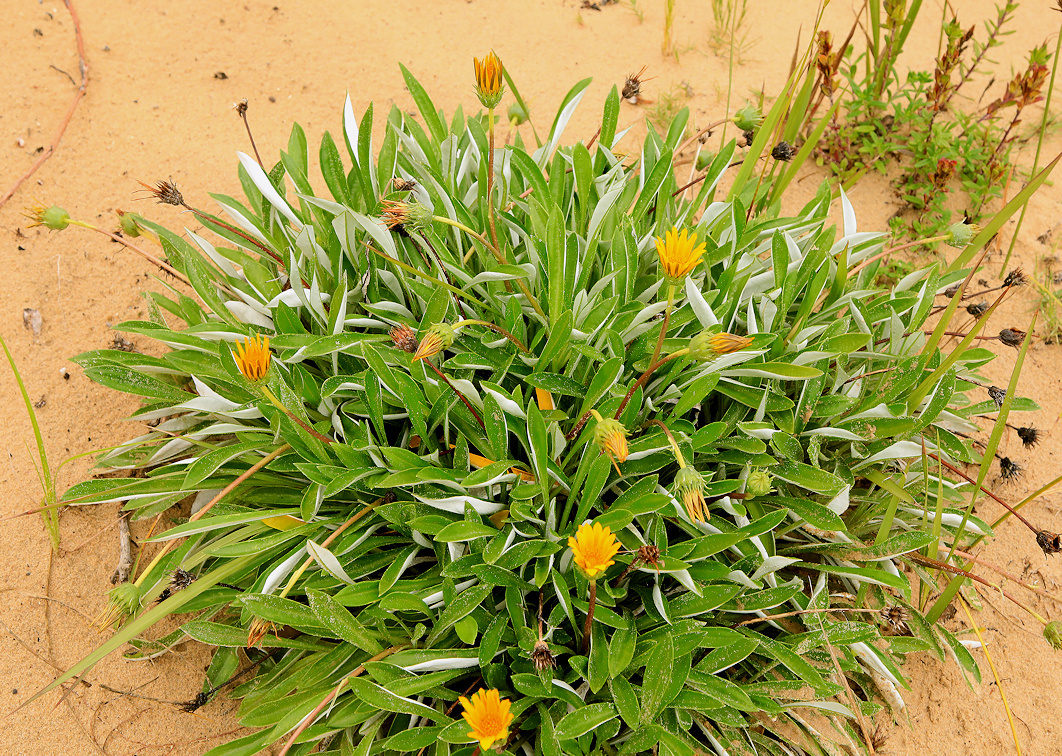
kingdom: Plantae
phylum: Tracheophyta
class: Magnoliopsida
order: Asterales
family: Asteraceae
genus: Gazania
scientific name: Gazania rigens
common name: Treasureflower
